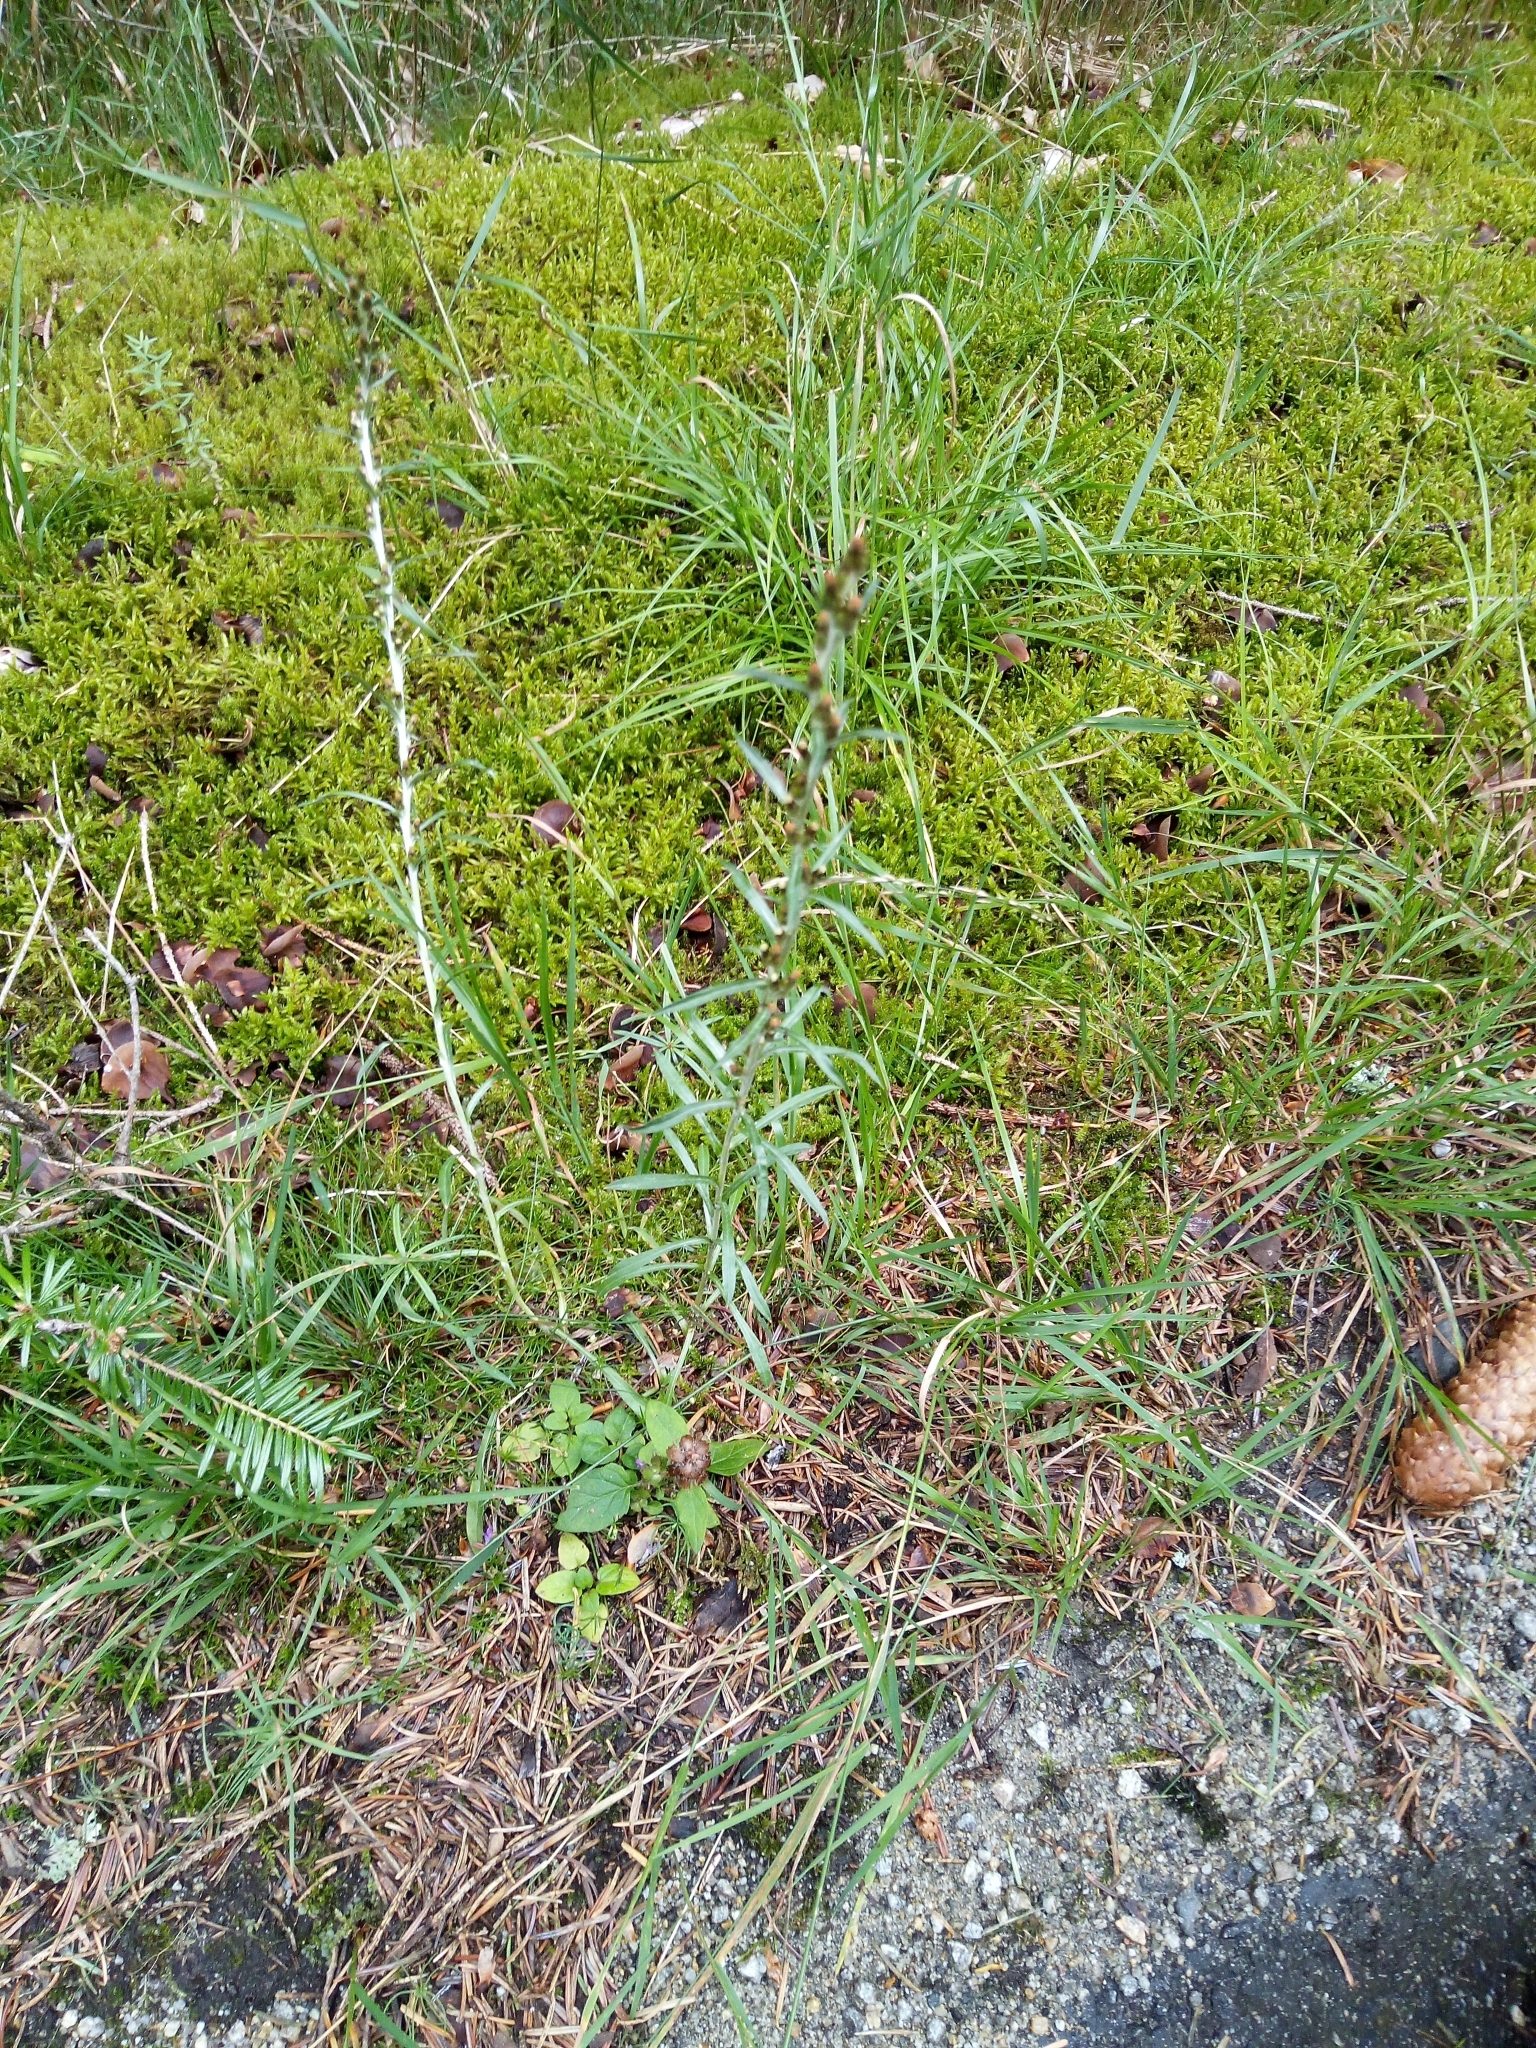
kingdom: Plantae
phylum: Tracheophyta
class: Magnoliopsida
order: Asterales
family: Asteraceae
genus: Omalotheca
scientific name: Omalotheca sylvatica
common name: Heath cudweed
